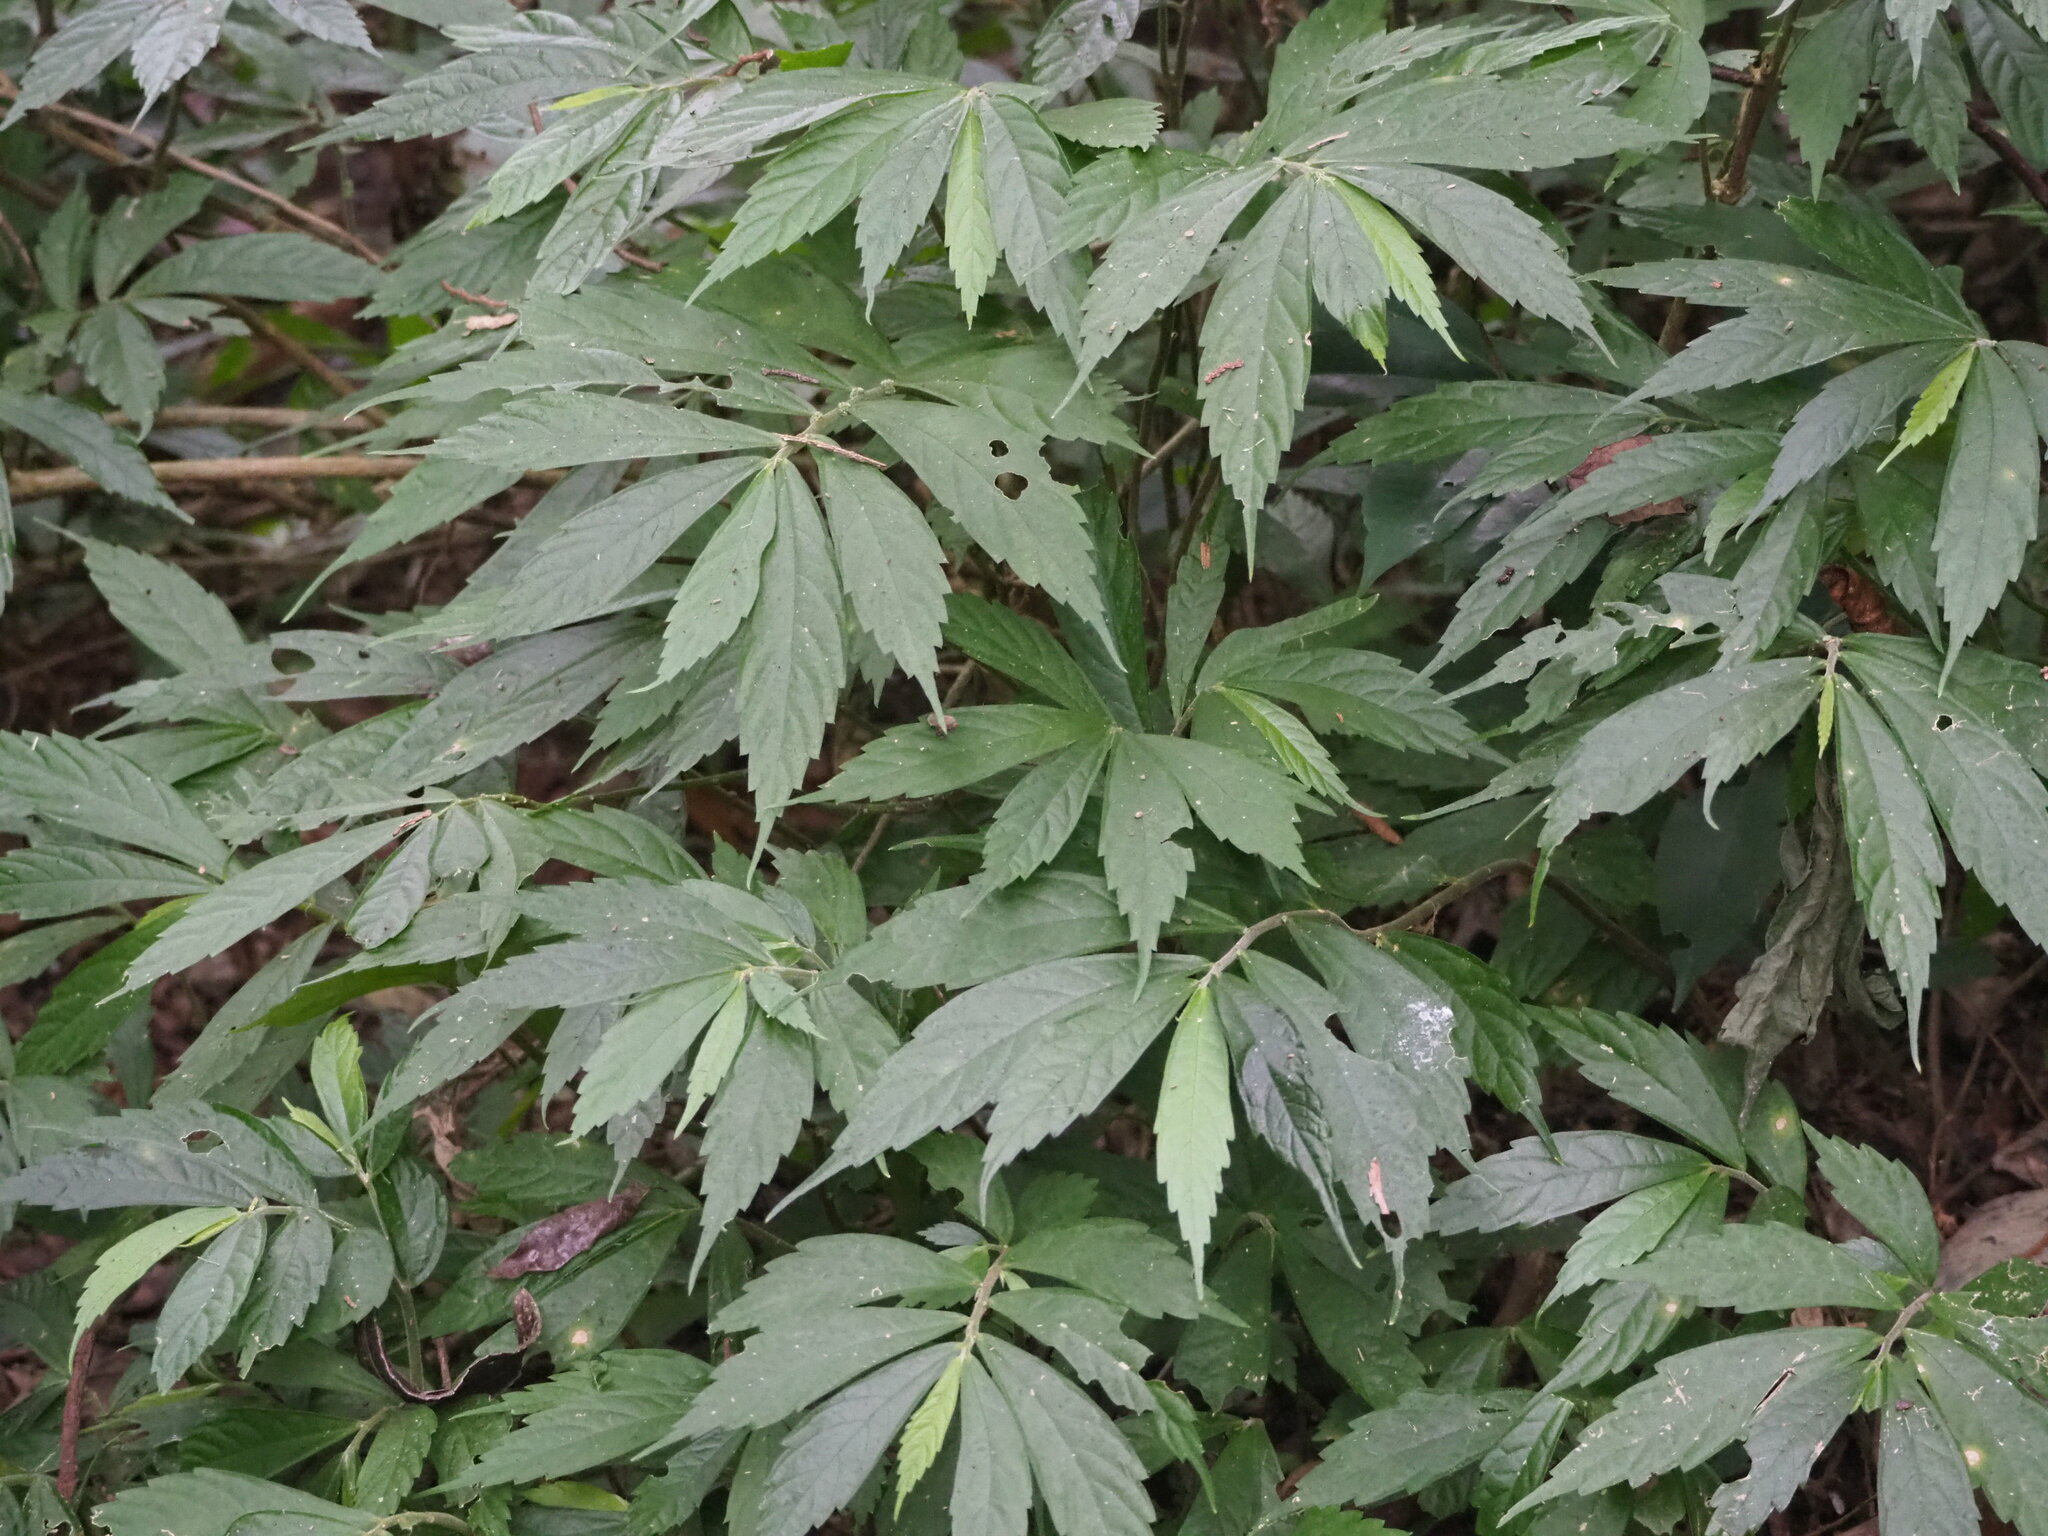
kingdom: Plantae
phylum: Tracheophyta
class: Magnoliopsida
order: Rosales
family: Urticaceae
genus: Elatostema
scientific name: Elatostema lineolatum
